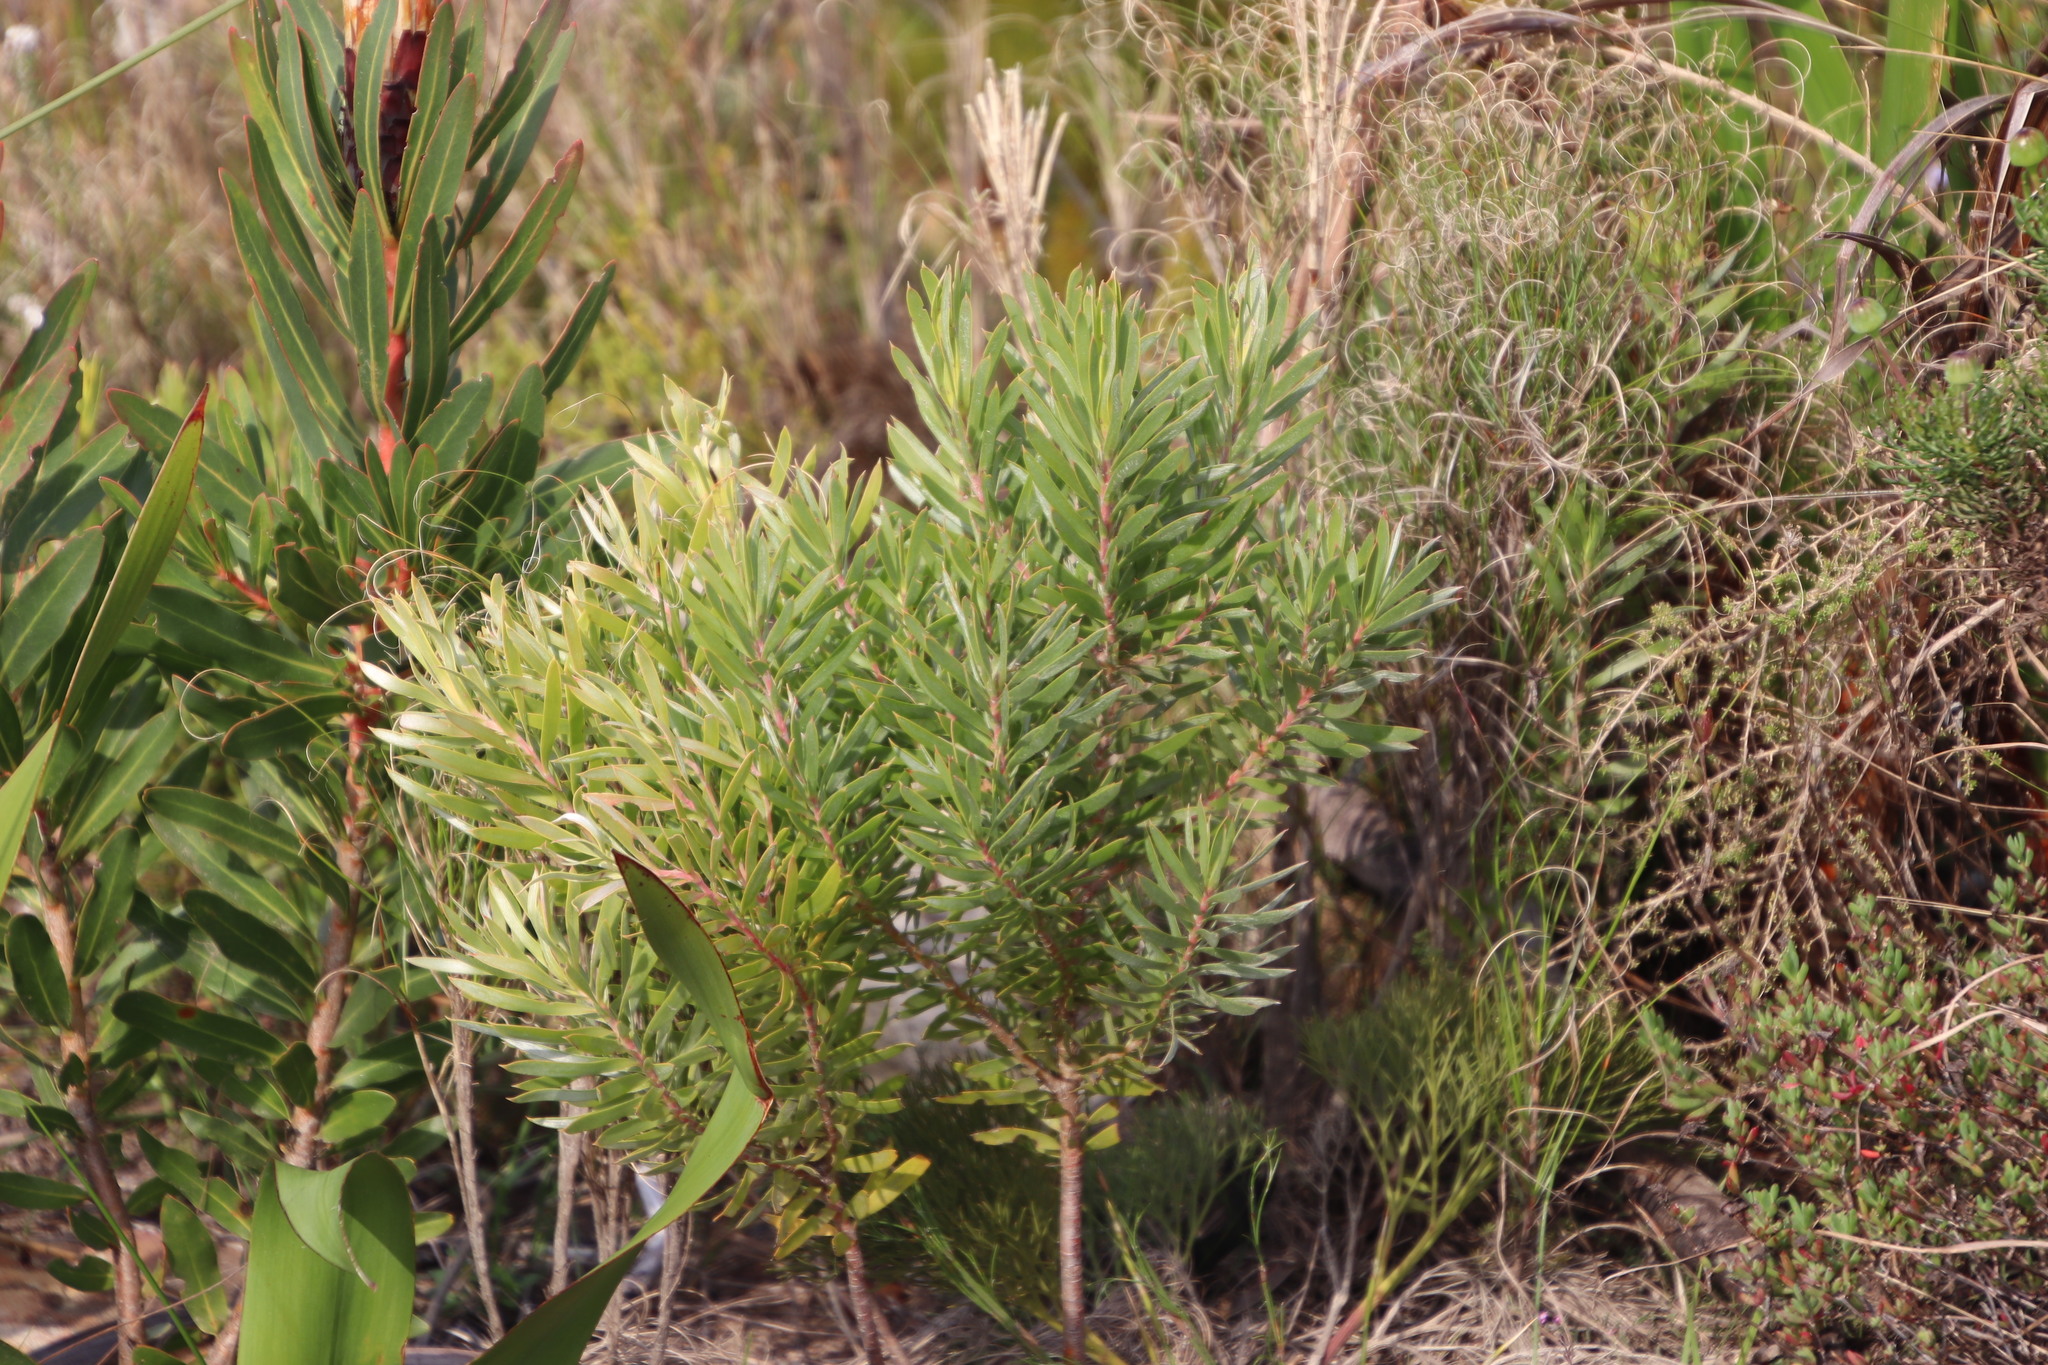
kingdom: Plantae
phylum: Tracheophyta
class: Magnoliopsida
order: Proteales
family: Proteaceae
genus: Leucadendron
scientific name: Leucadendron xanthoconus
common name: Sickle-leaf conebush
